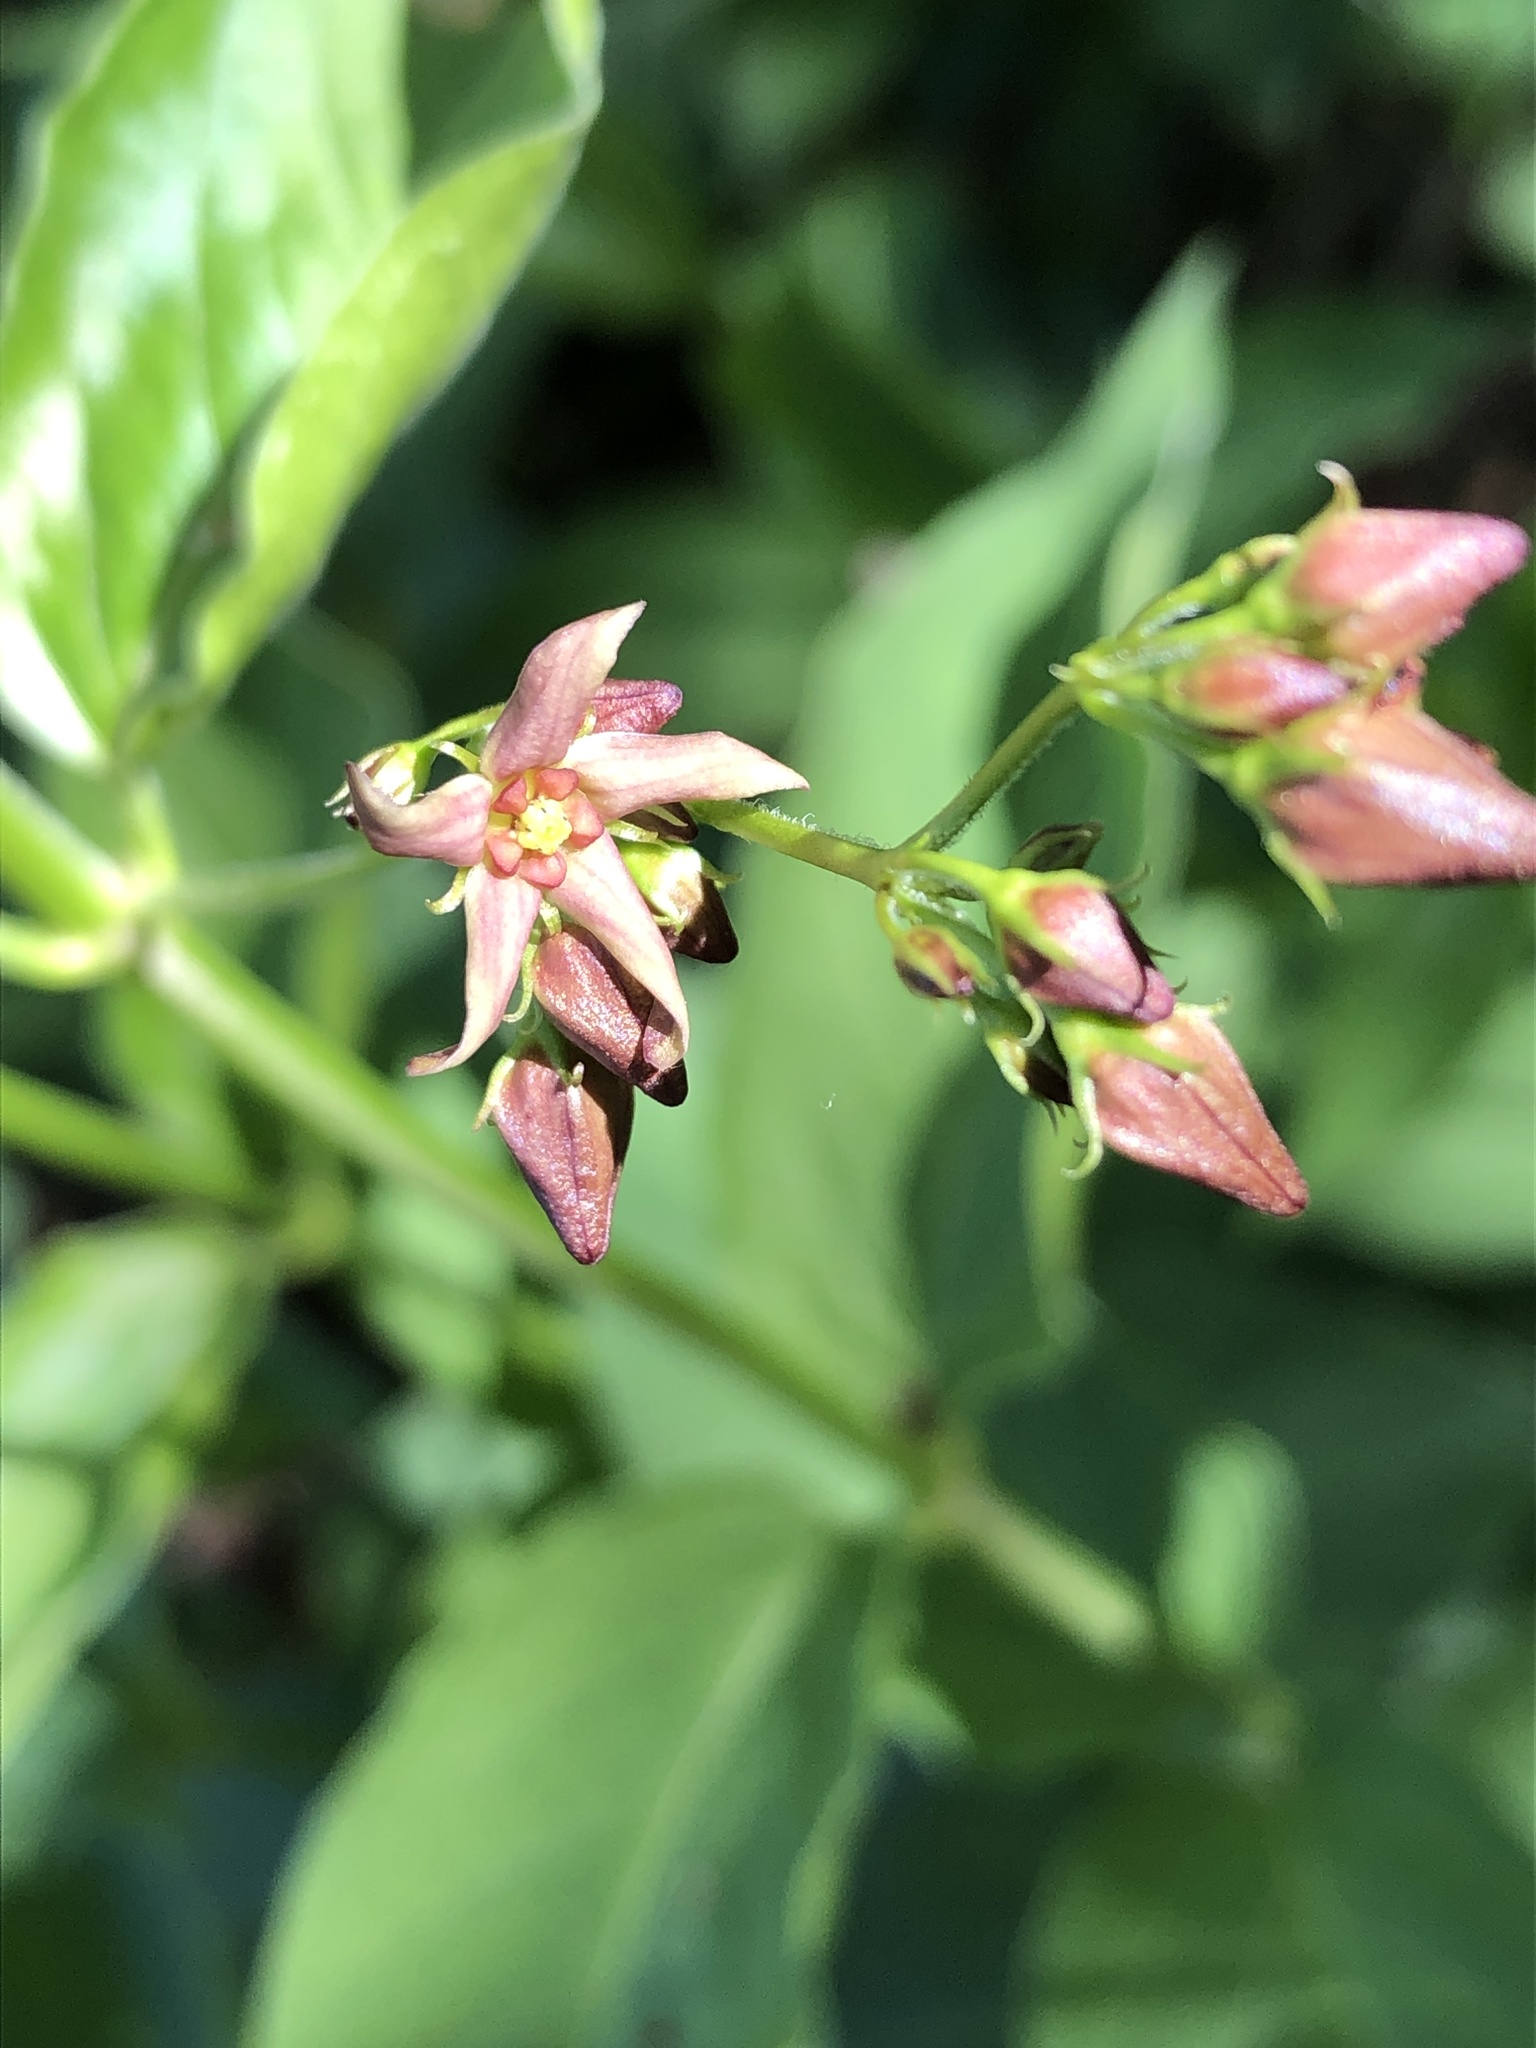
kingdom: Plantae
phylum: Tracheophyta
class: Magnoliopsida
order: Gentianales
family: Apocynaceae
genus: Vincetoxicum
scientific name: Vincetoxicum rossicum
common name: Dog-strangling vine
